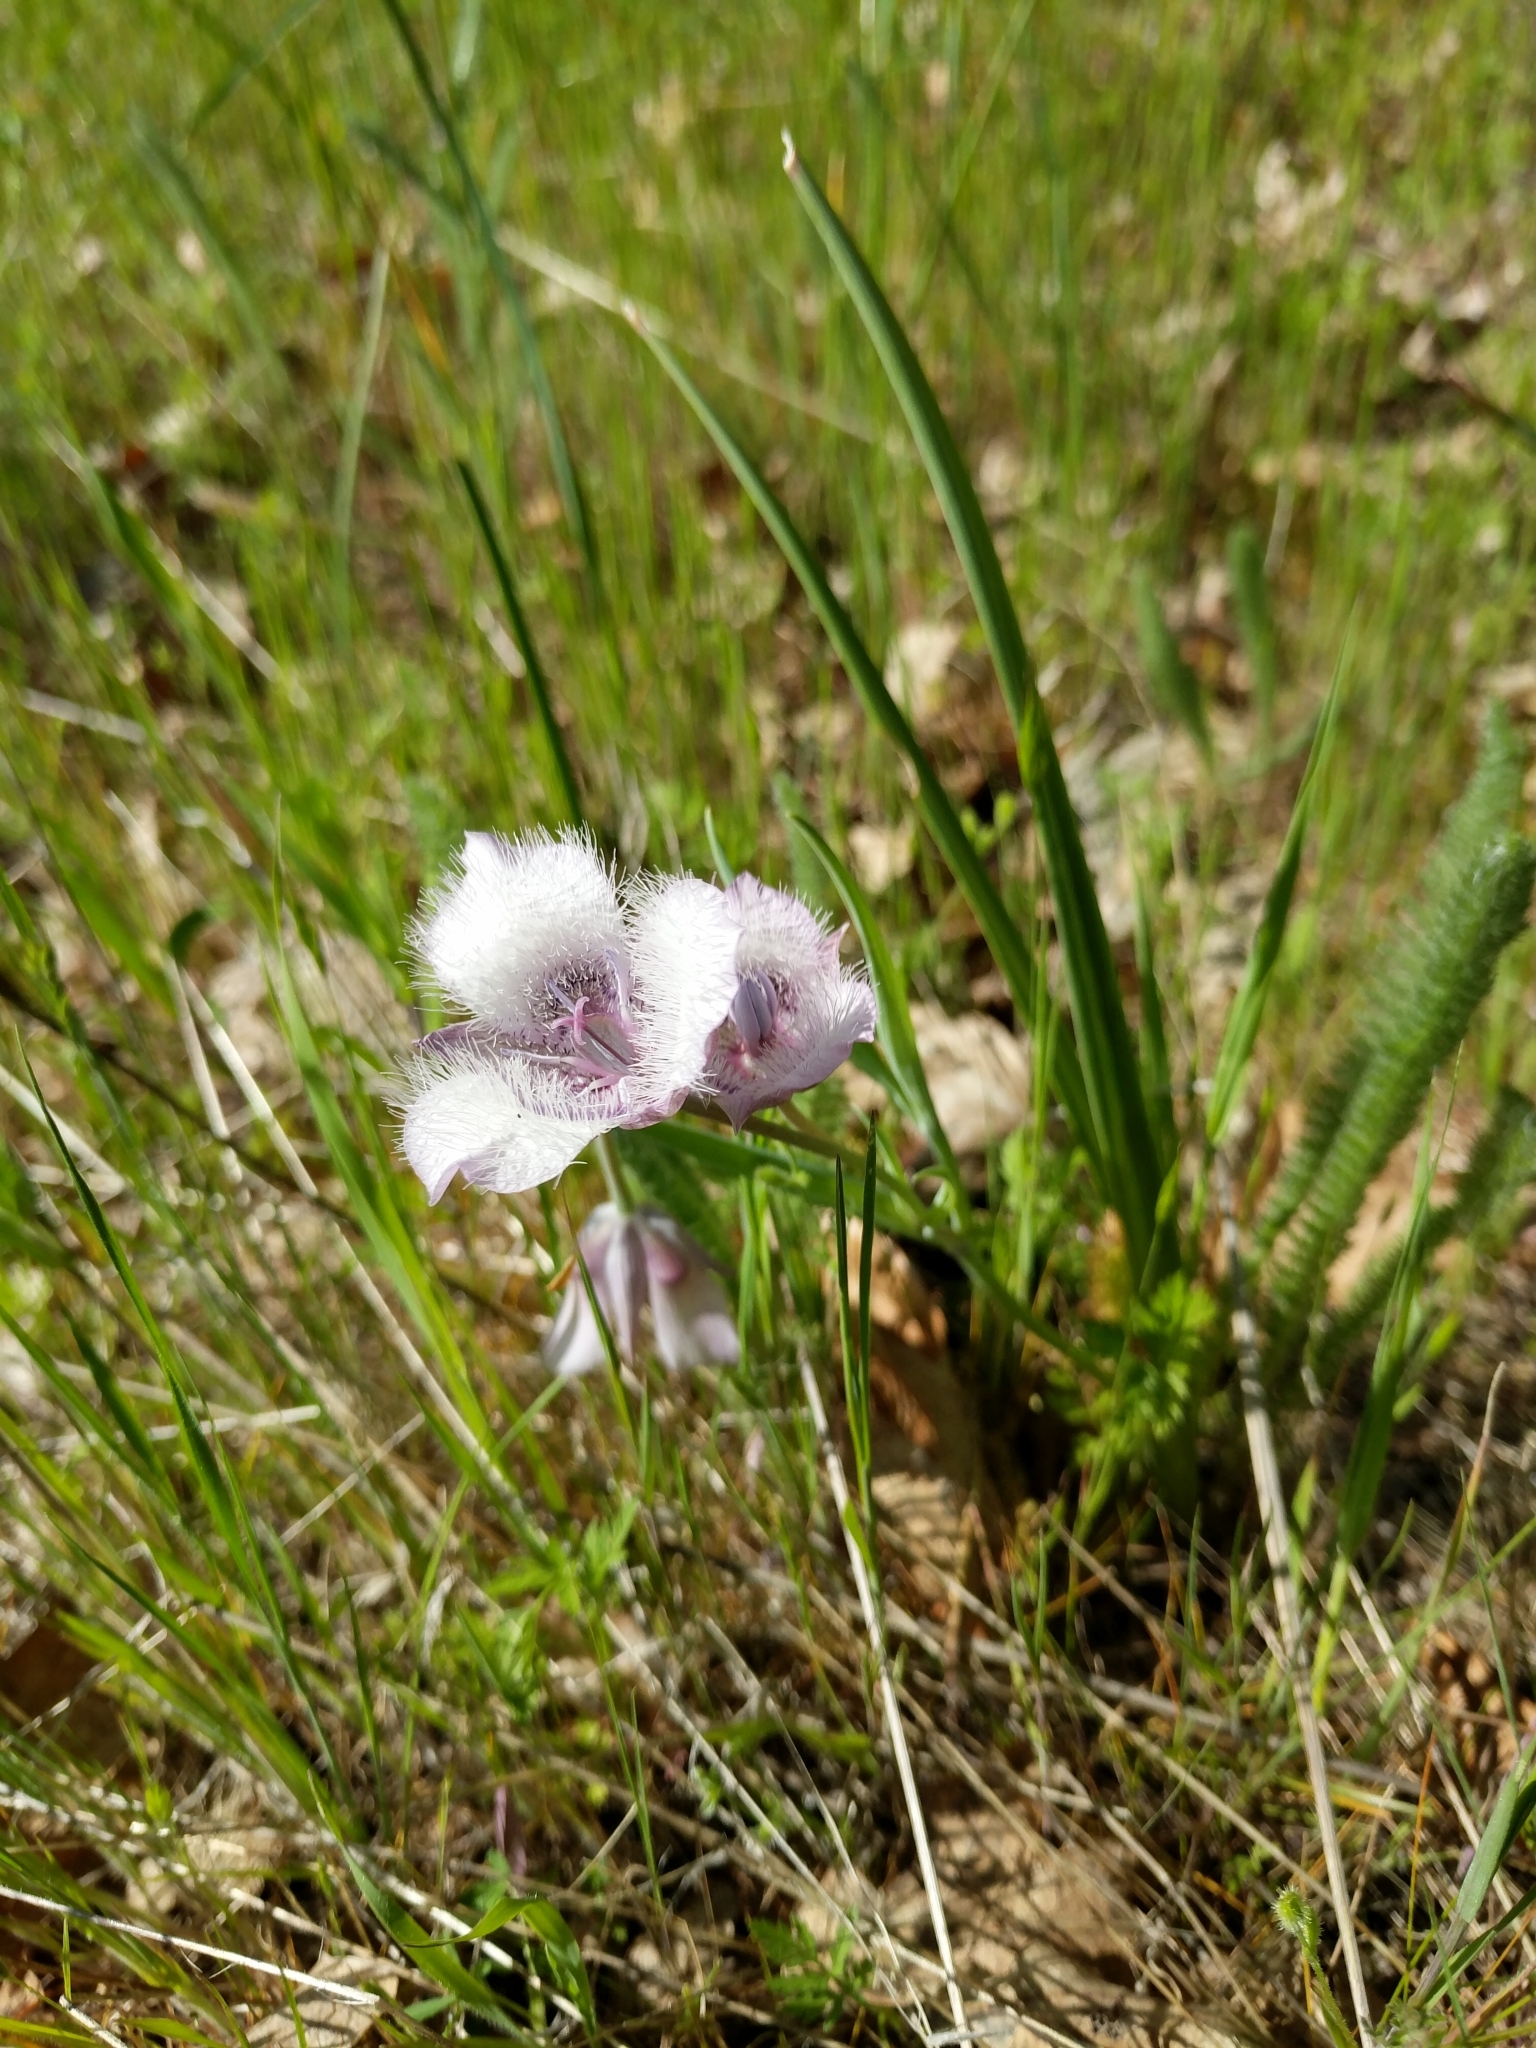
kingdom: Plantae
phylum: Tracheophyta
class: Liliopsida
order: Liliales
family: Liliaceae
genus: Calochortus
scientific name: Calochortus tolmiei
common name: Pussy-ears
